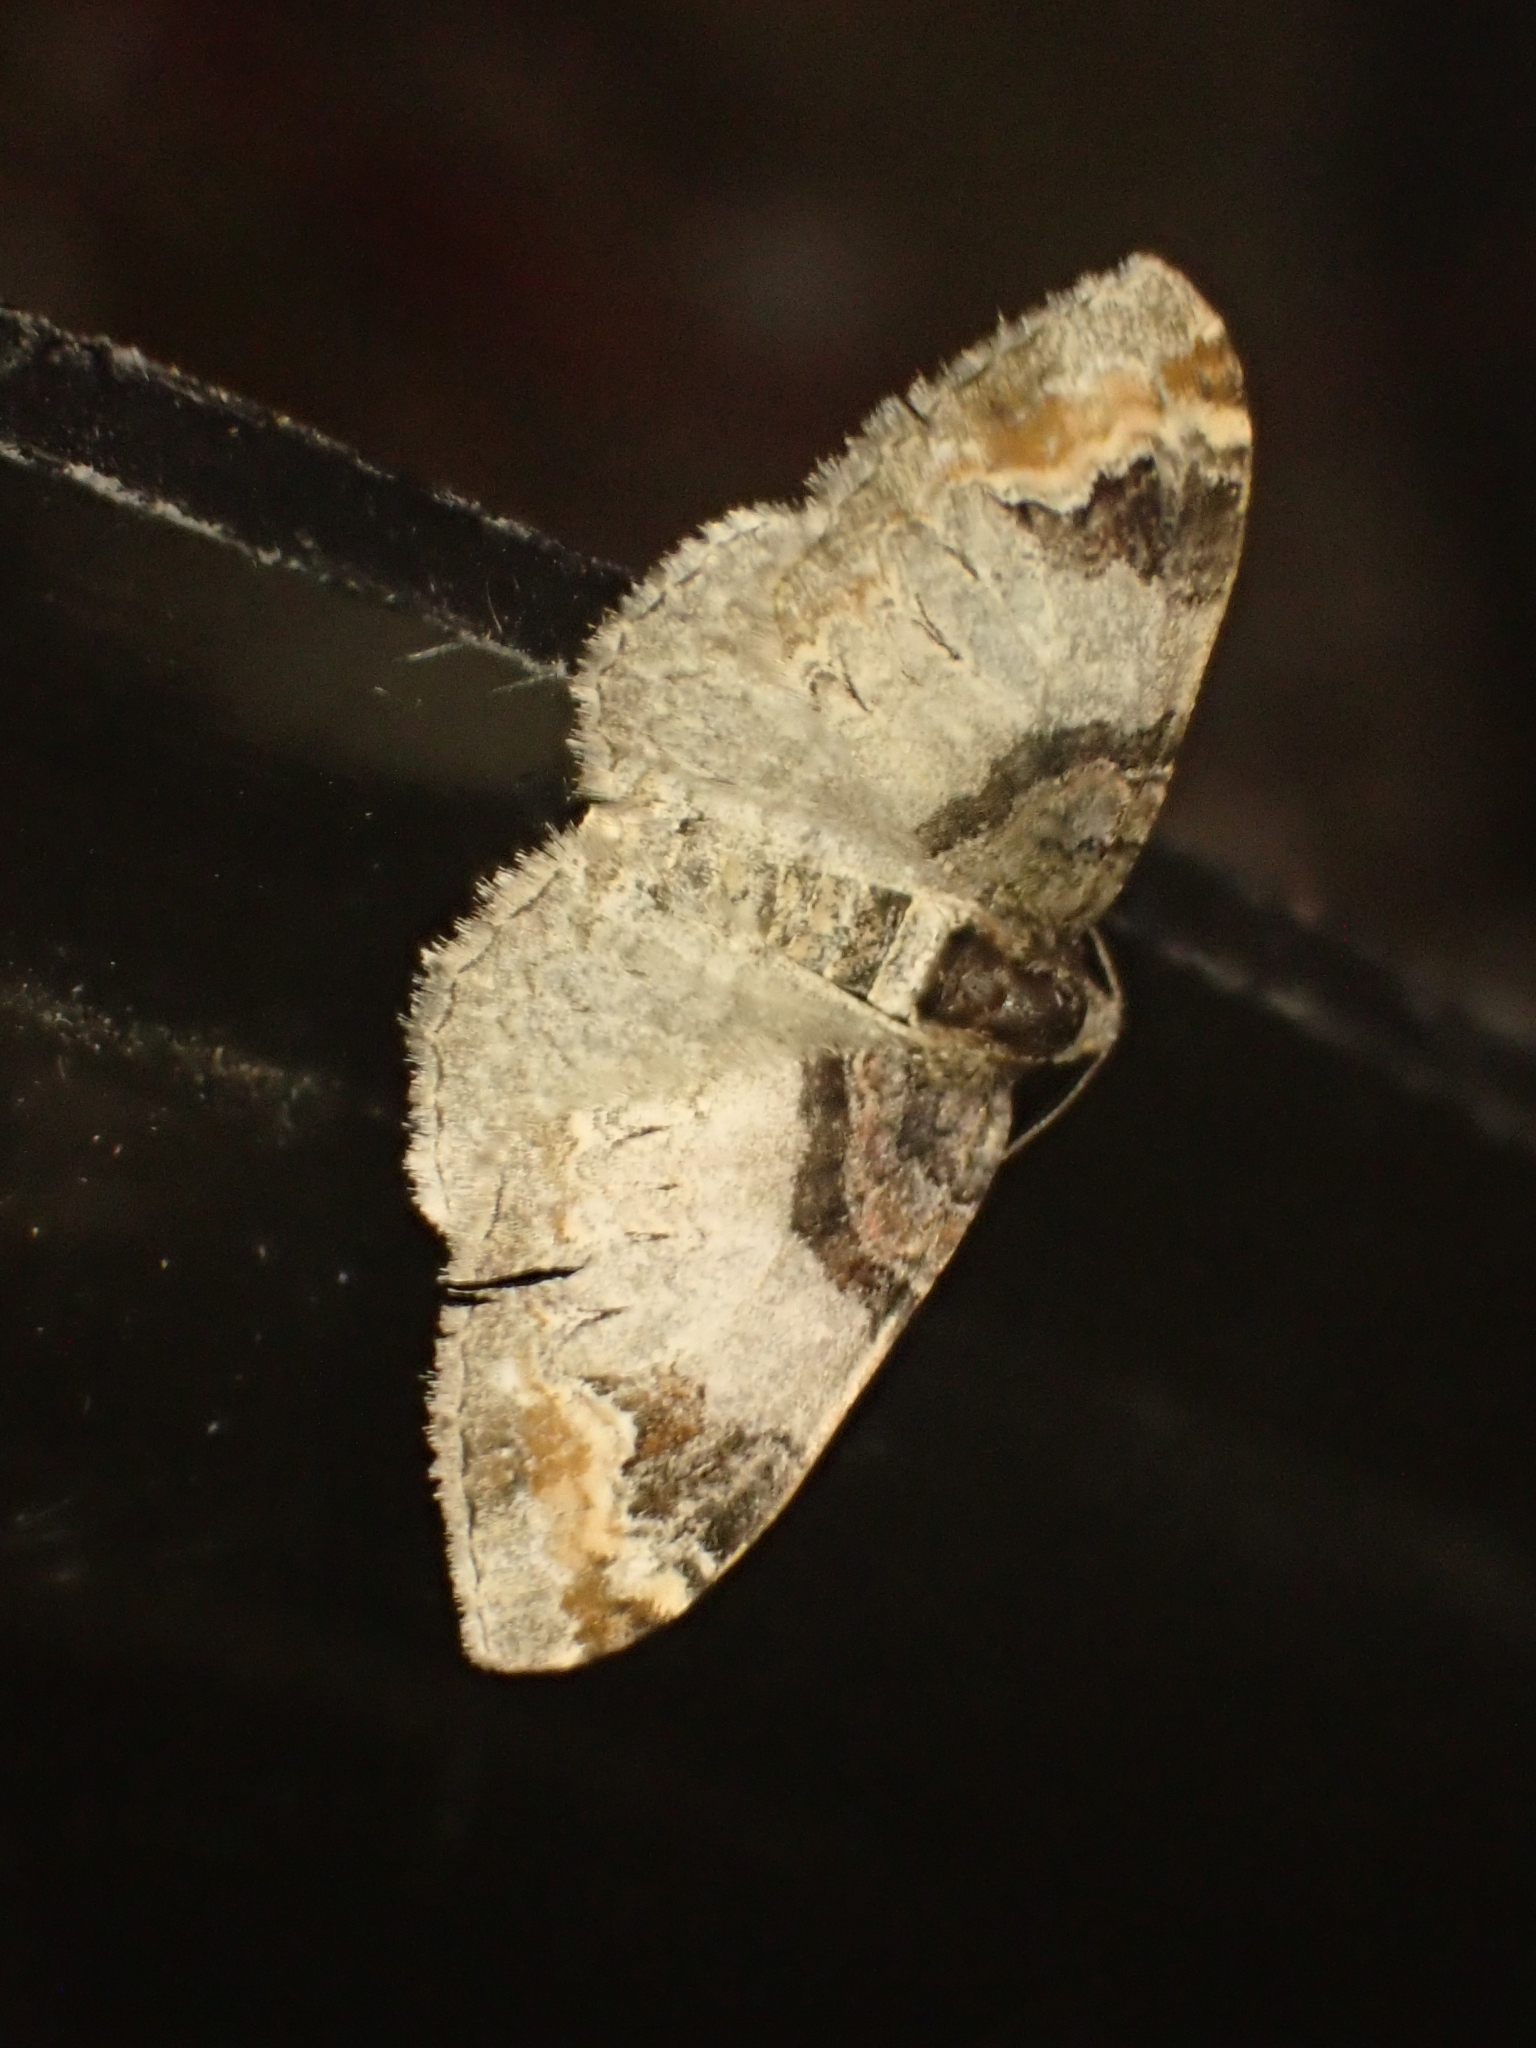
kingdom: Animalia
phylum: Arthropoda
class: Insecta
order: Lepidoptera
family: Geometridae
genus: Catarhoe
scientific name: Catarhoe cuculata
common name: Royal mantle
